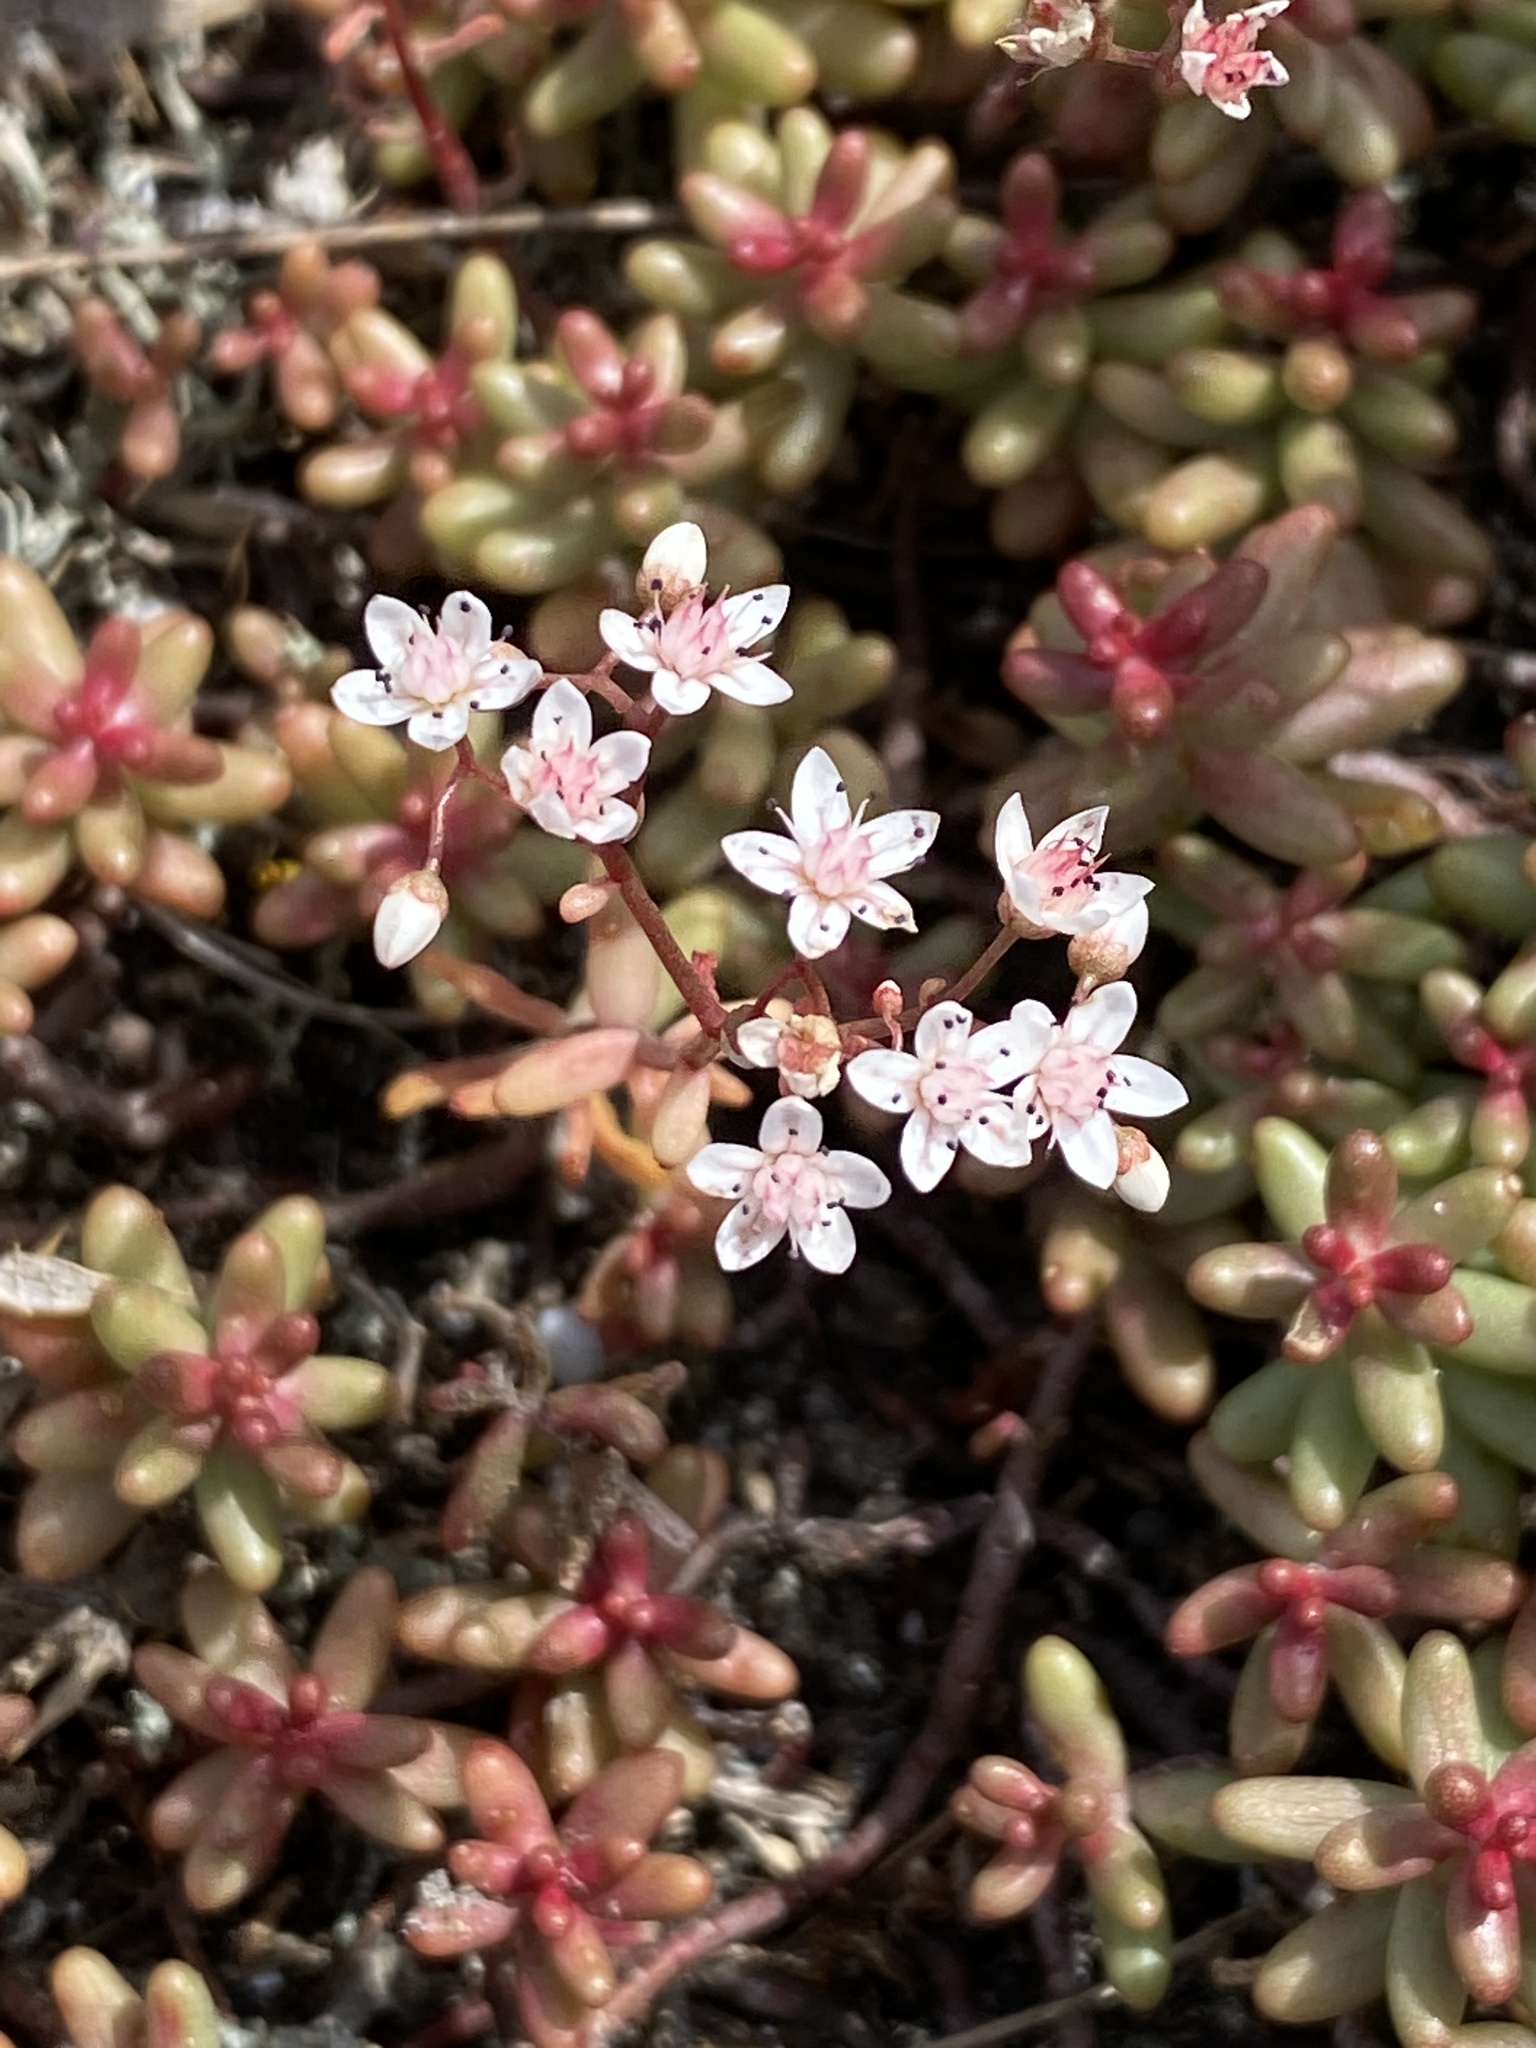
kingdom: Plantae
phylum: Tracheophyta
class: Magnoliopsida
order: Saxifragales
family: Crassulaceae
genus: Sedum
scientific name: Sedum album
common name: White stonecrop
